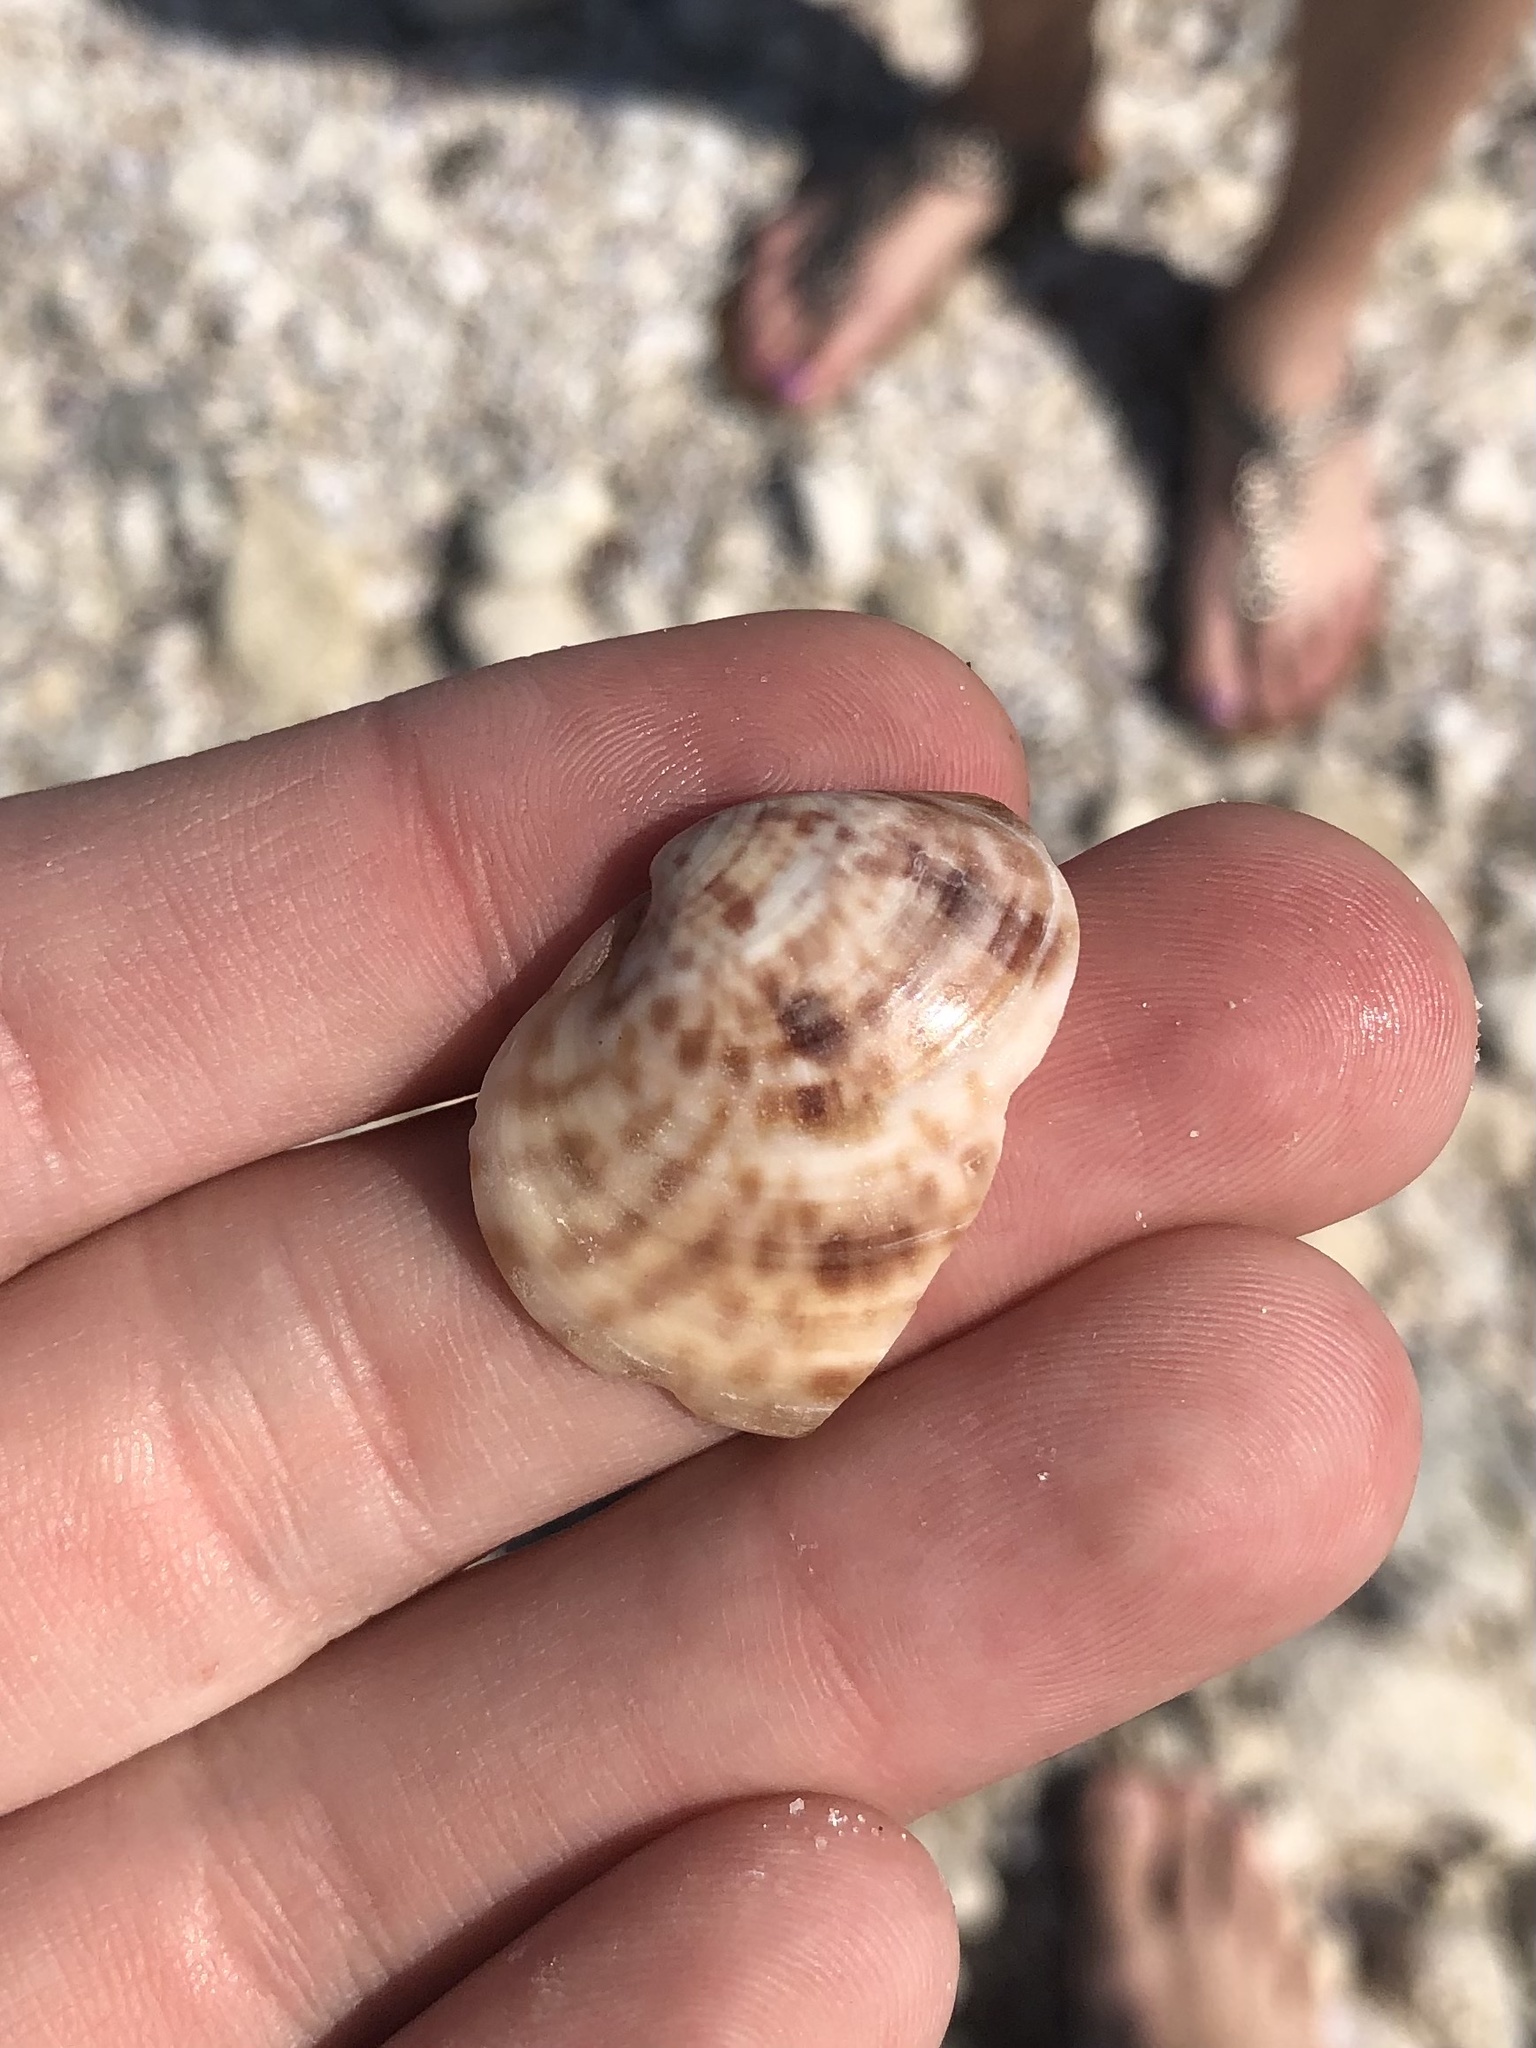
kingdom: Animalia
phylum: Mollusca
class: Bivalvia
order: Venerida
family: Veneridae
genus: Megapitaria
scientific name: Megapitaria maculata
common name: Calico clam
